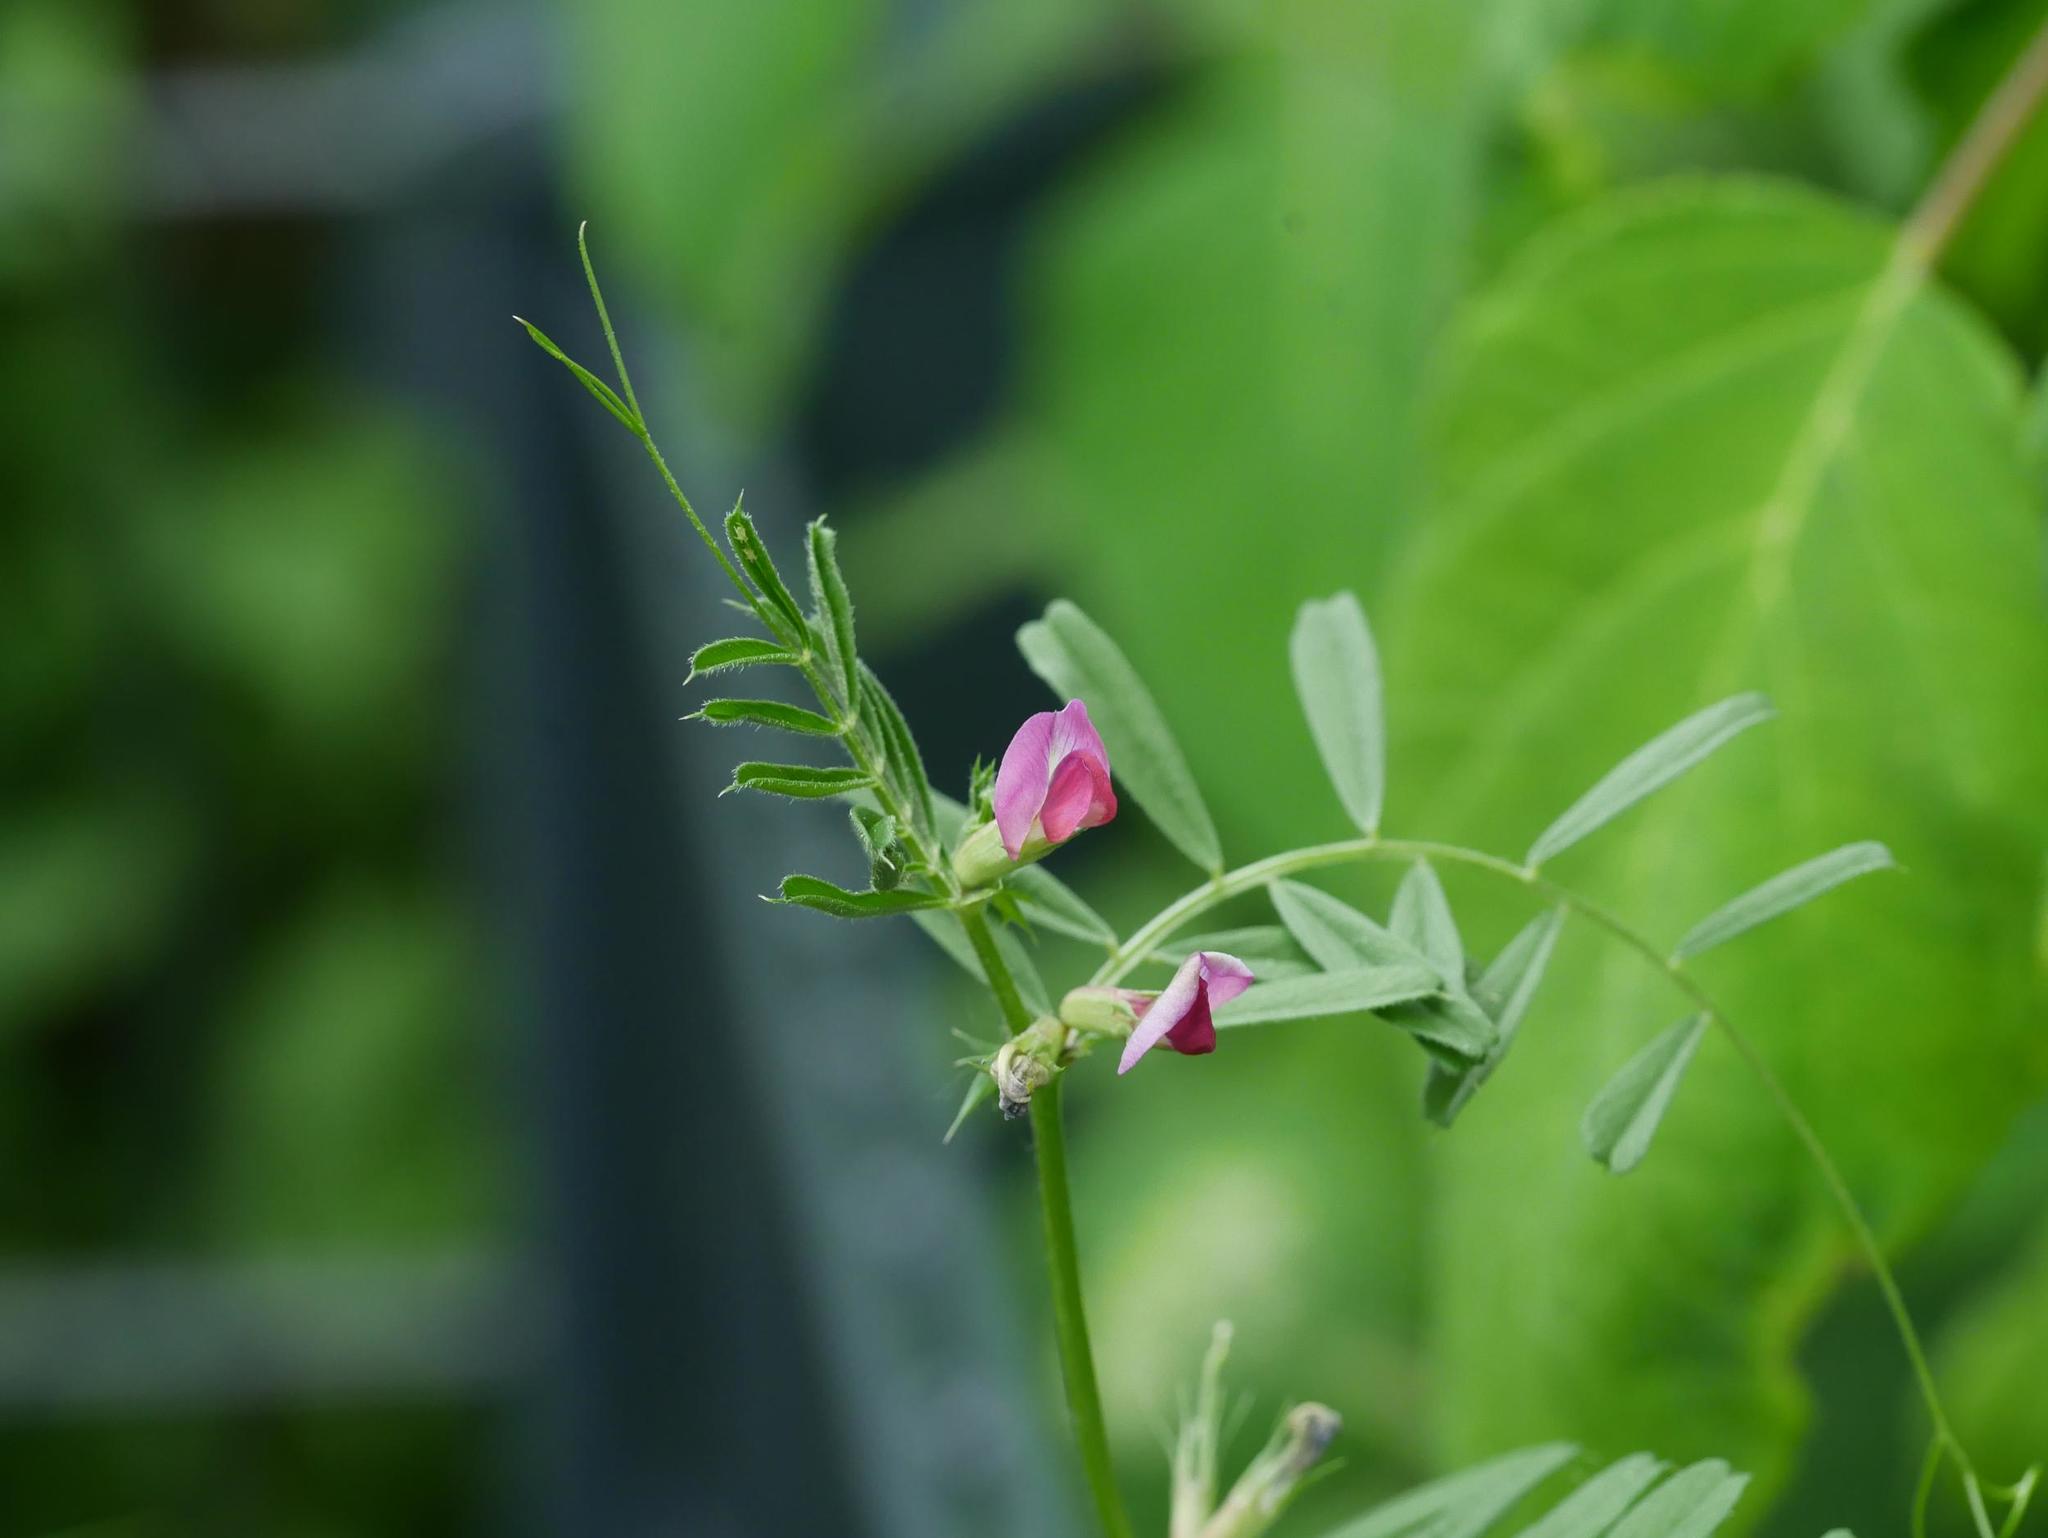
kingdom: Plantae
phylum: Tracheophyta
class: Magnoliopsida
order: Fabales
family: Fabaceae
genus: Vicia
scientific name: Vicia sativa
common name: Garden vetch
